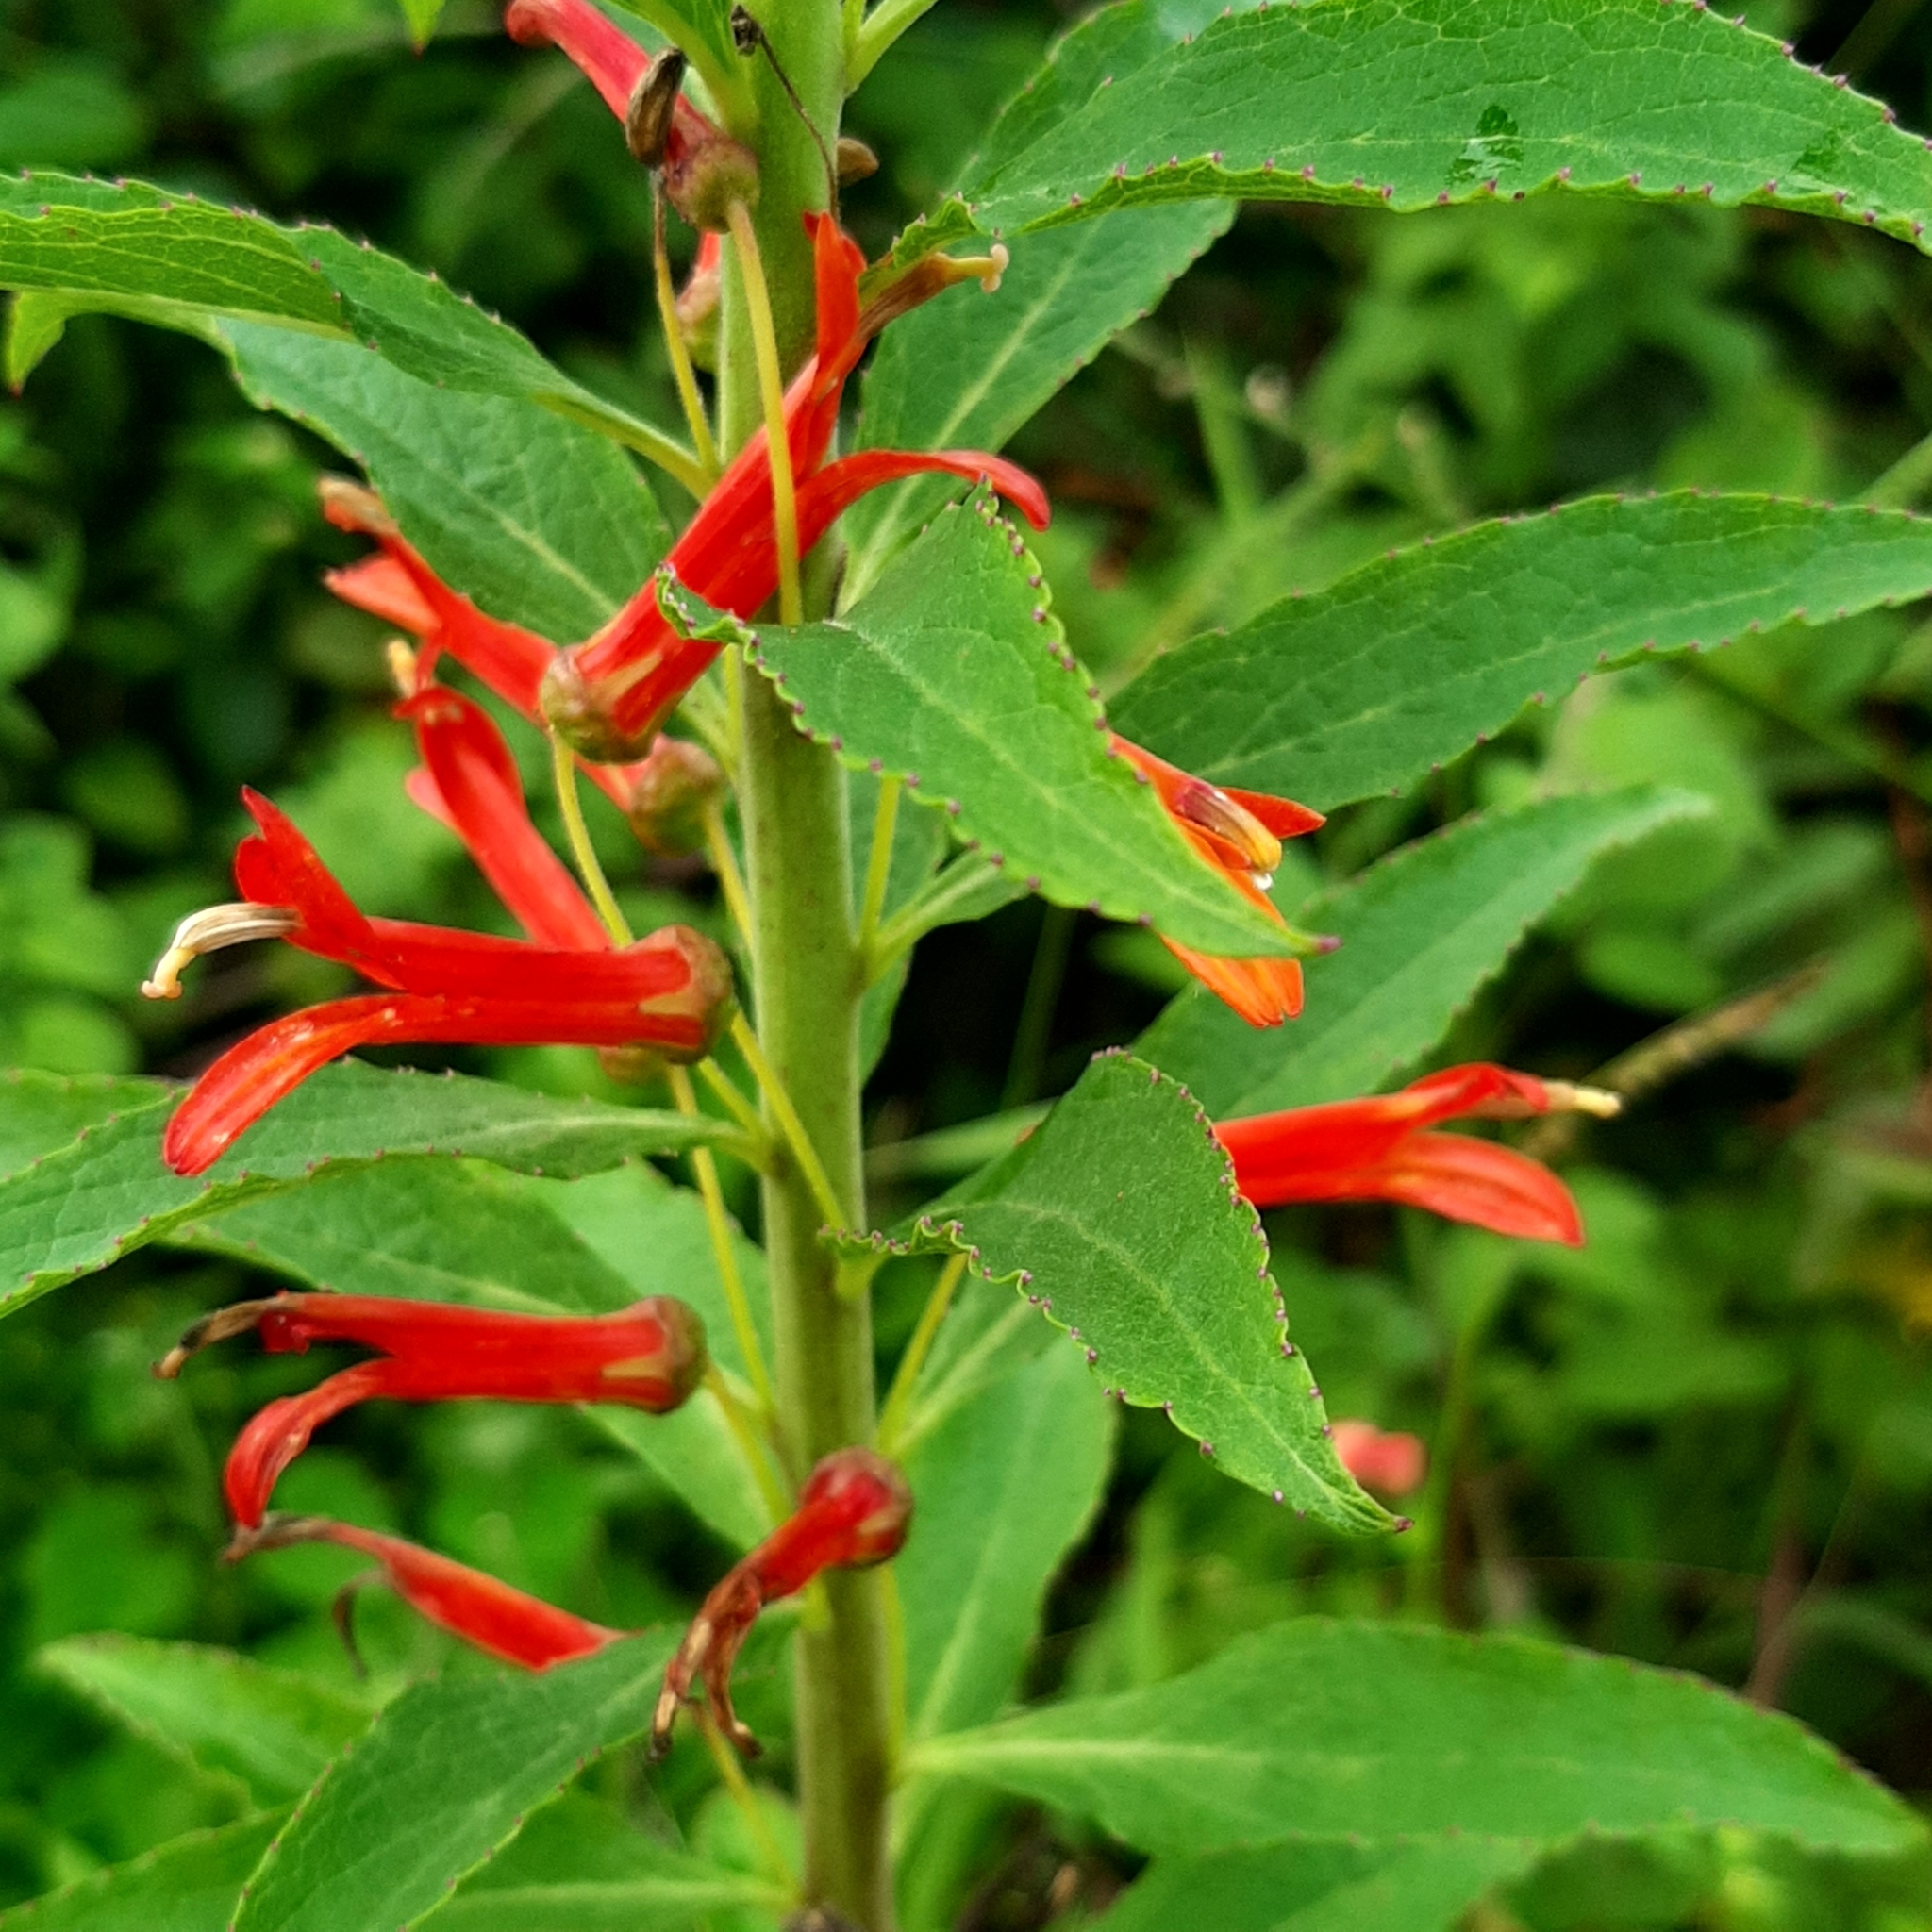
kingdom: Plantae
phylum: Tracheophyta
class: Magnoliopsida
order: Asterales
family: Campanulaceae
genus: Lobelia
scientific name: Lobelia laxiflora
